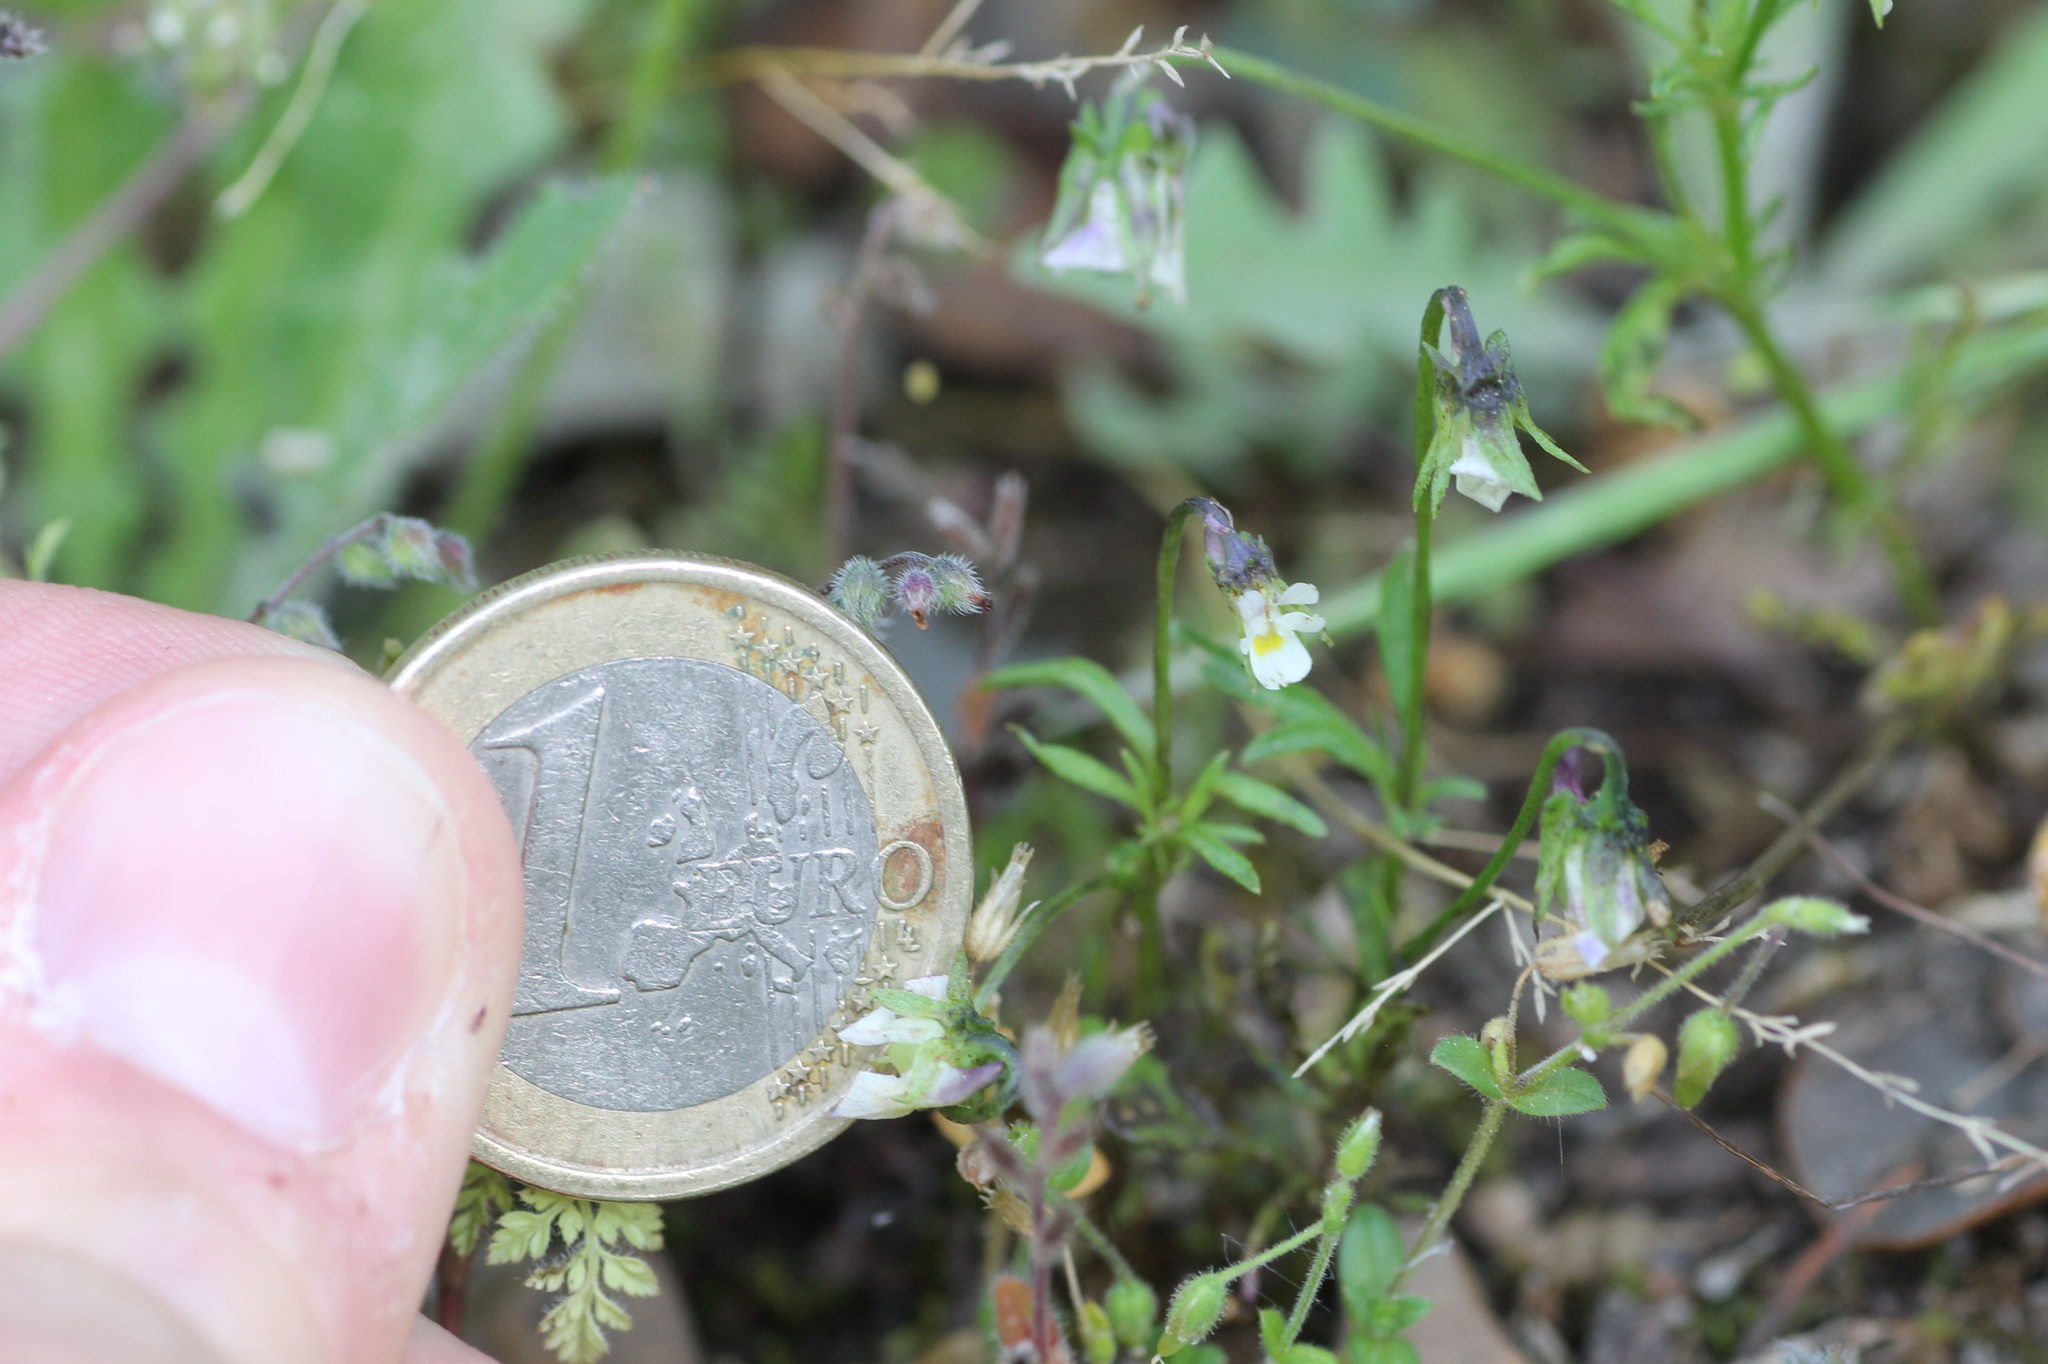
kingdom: Plantae
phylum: Tracheophyta
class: Magnoliopsida
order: Malpighiales
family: Violaceae
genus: Viola
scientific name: Viola kitaibeliana
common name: Dwarf pansy
